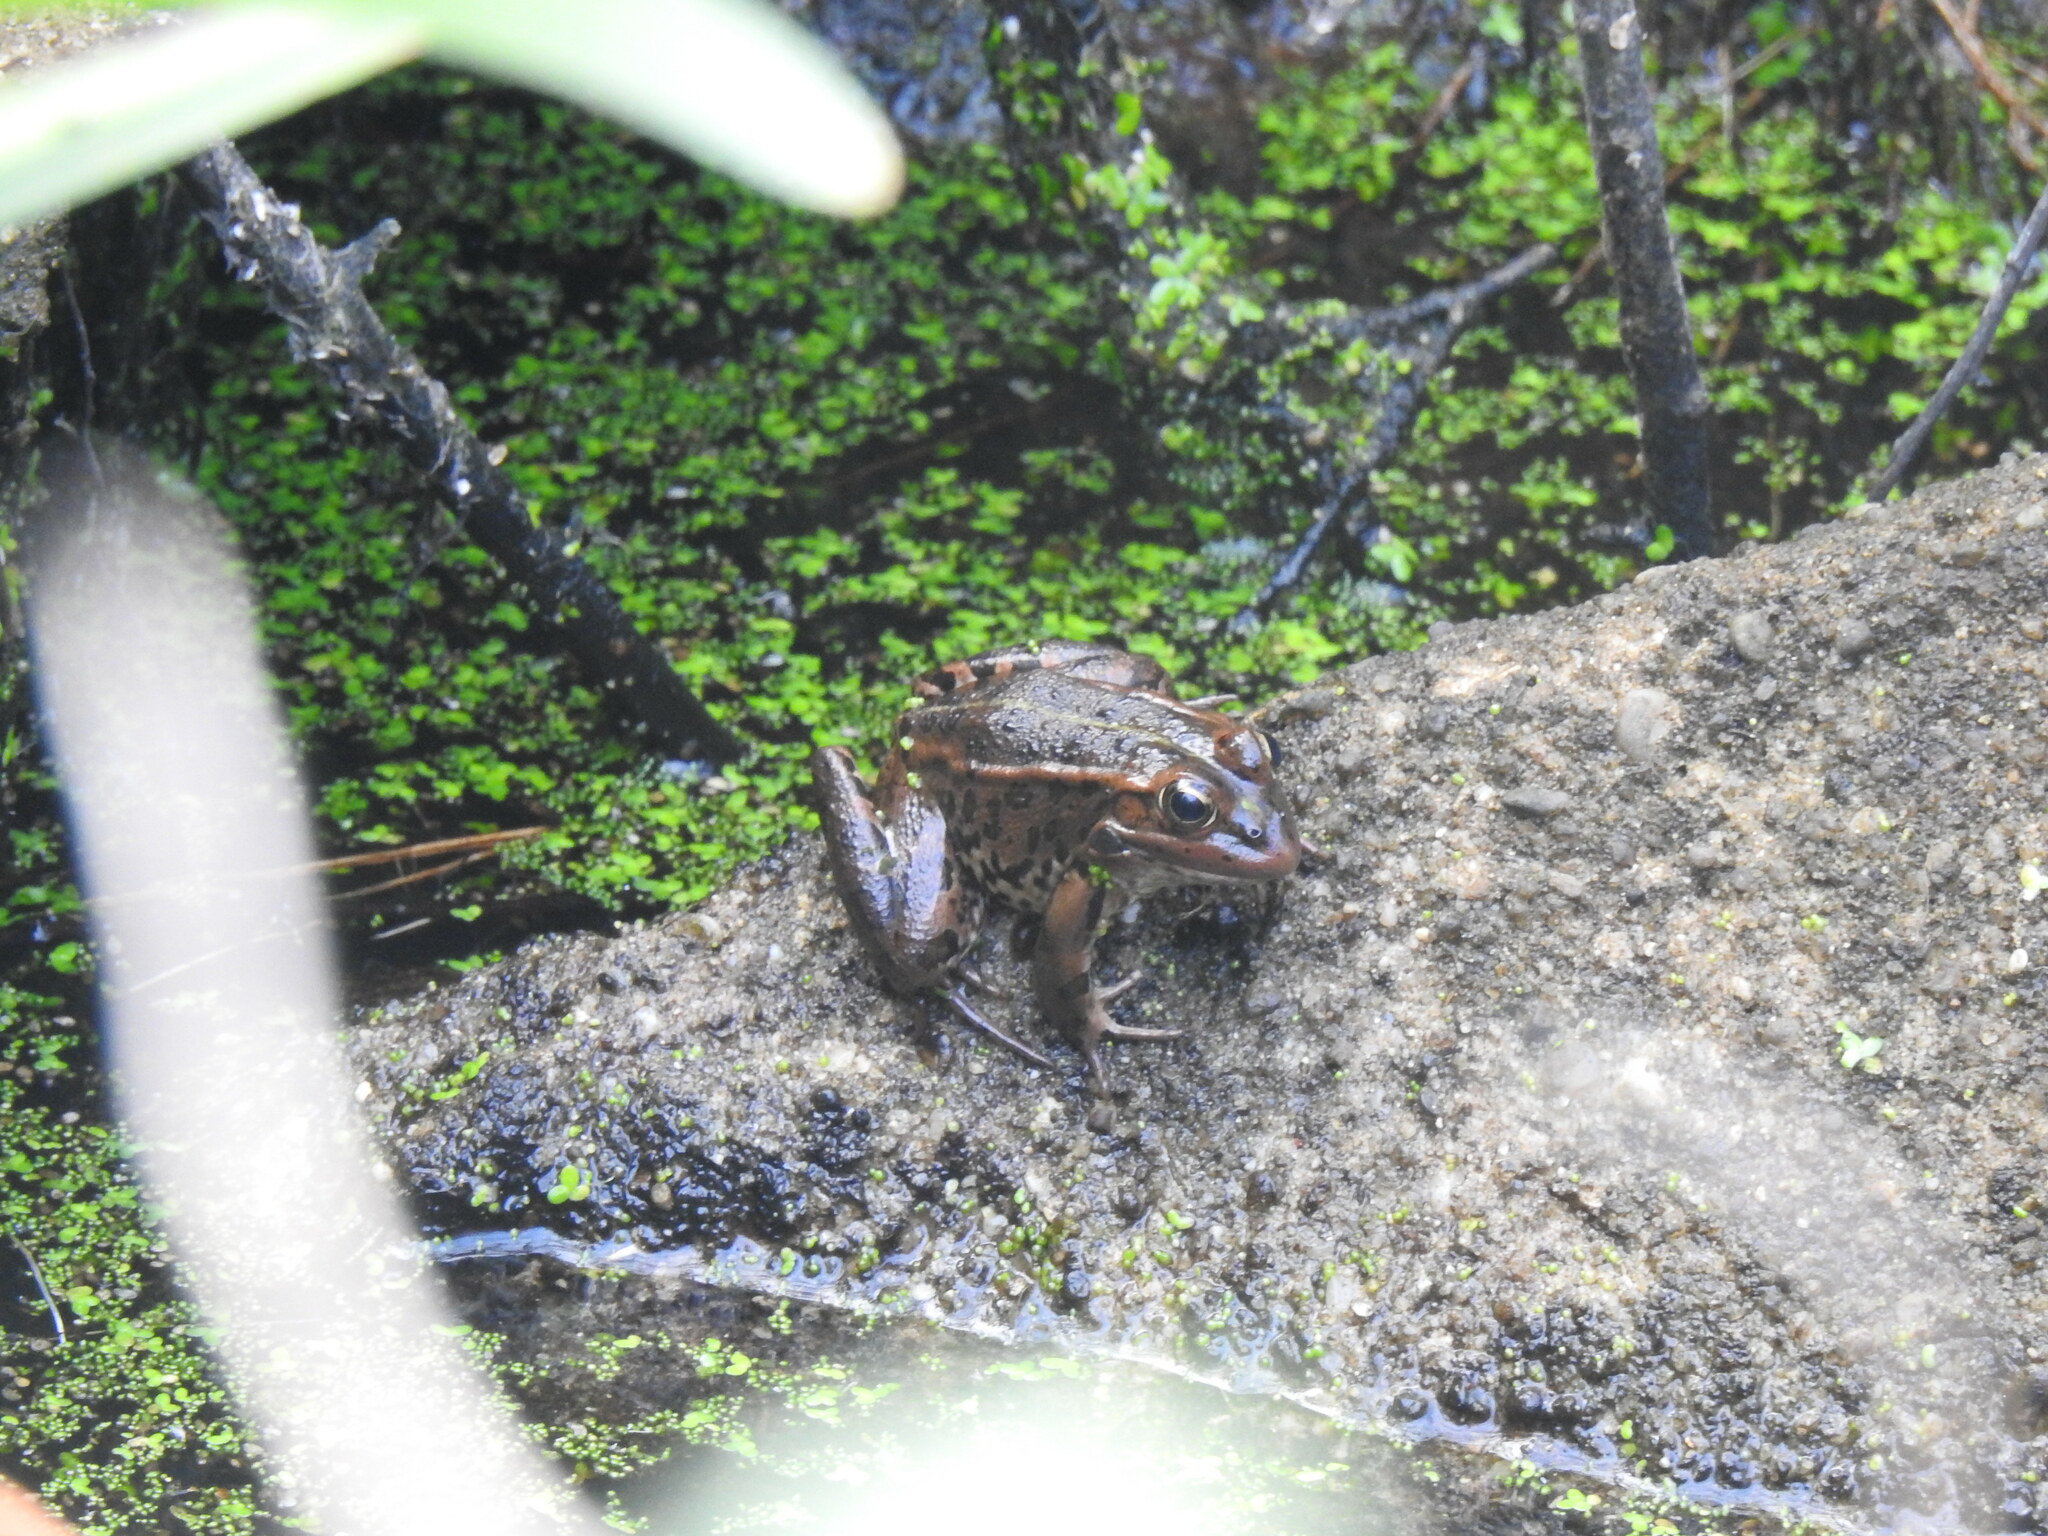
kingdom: Animalia
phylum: Chordata
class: Amphibia
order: Anura
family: Ranidae
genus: Pelophylax
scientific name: Pelophylax perezi
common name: Perez's frog
